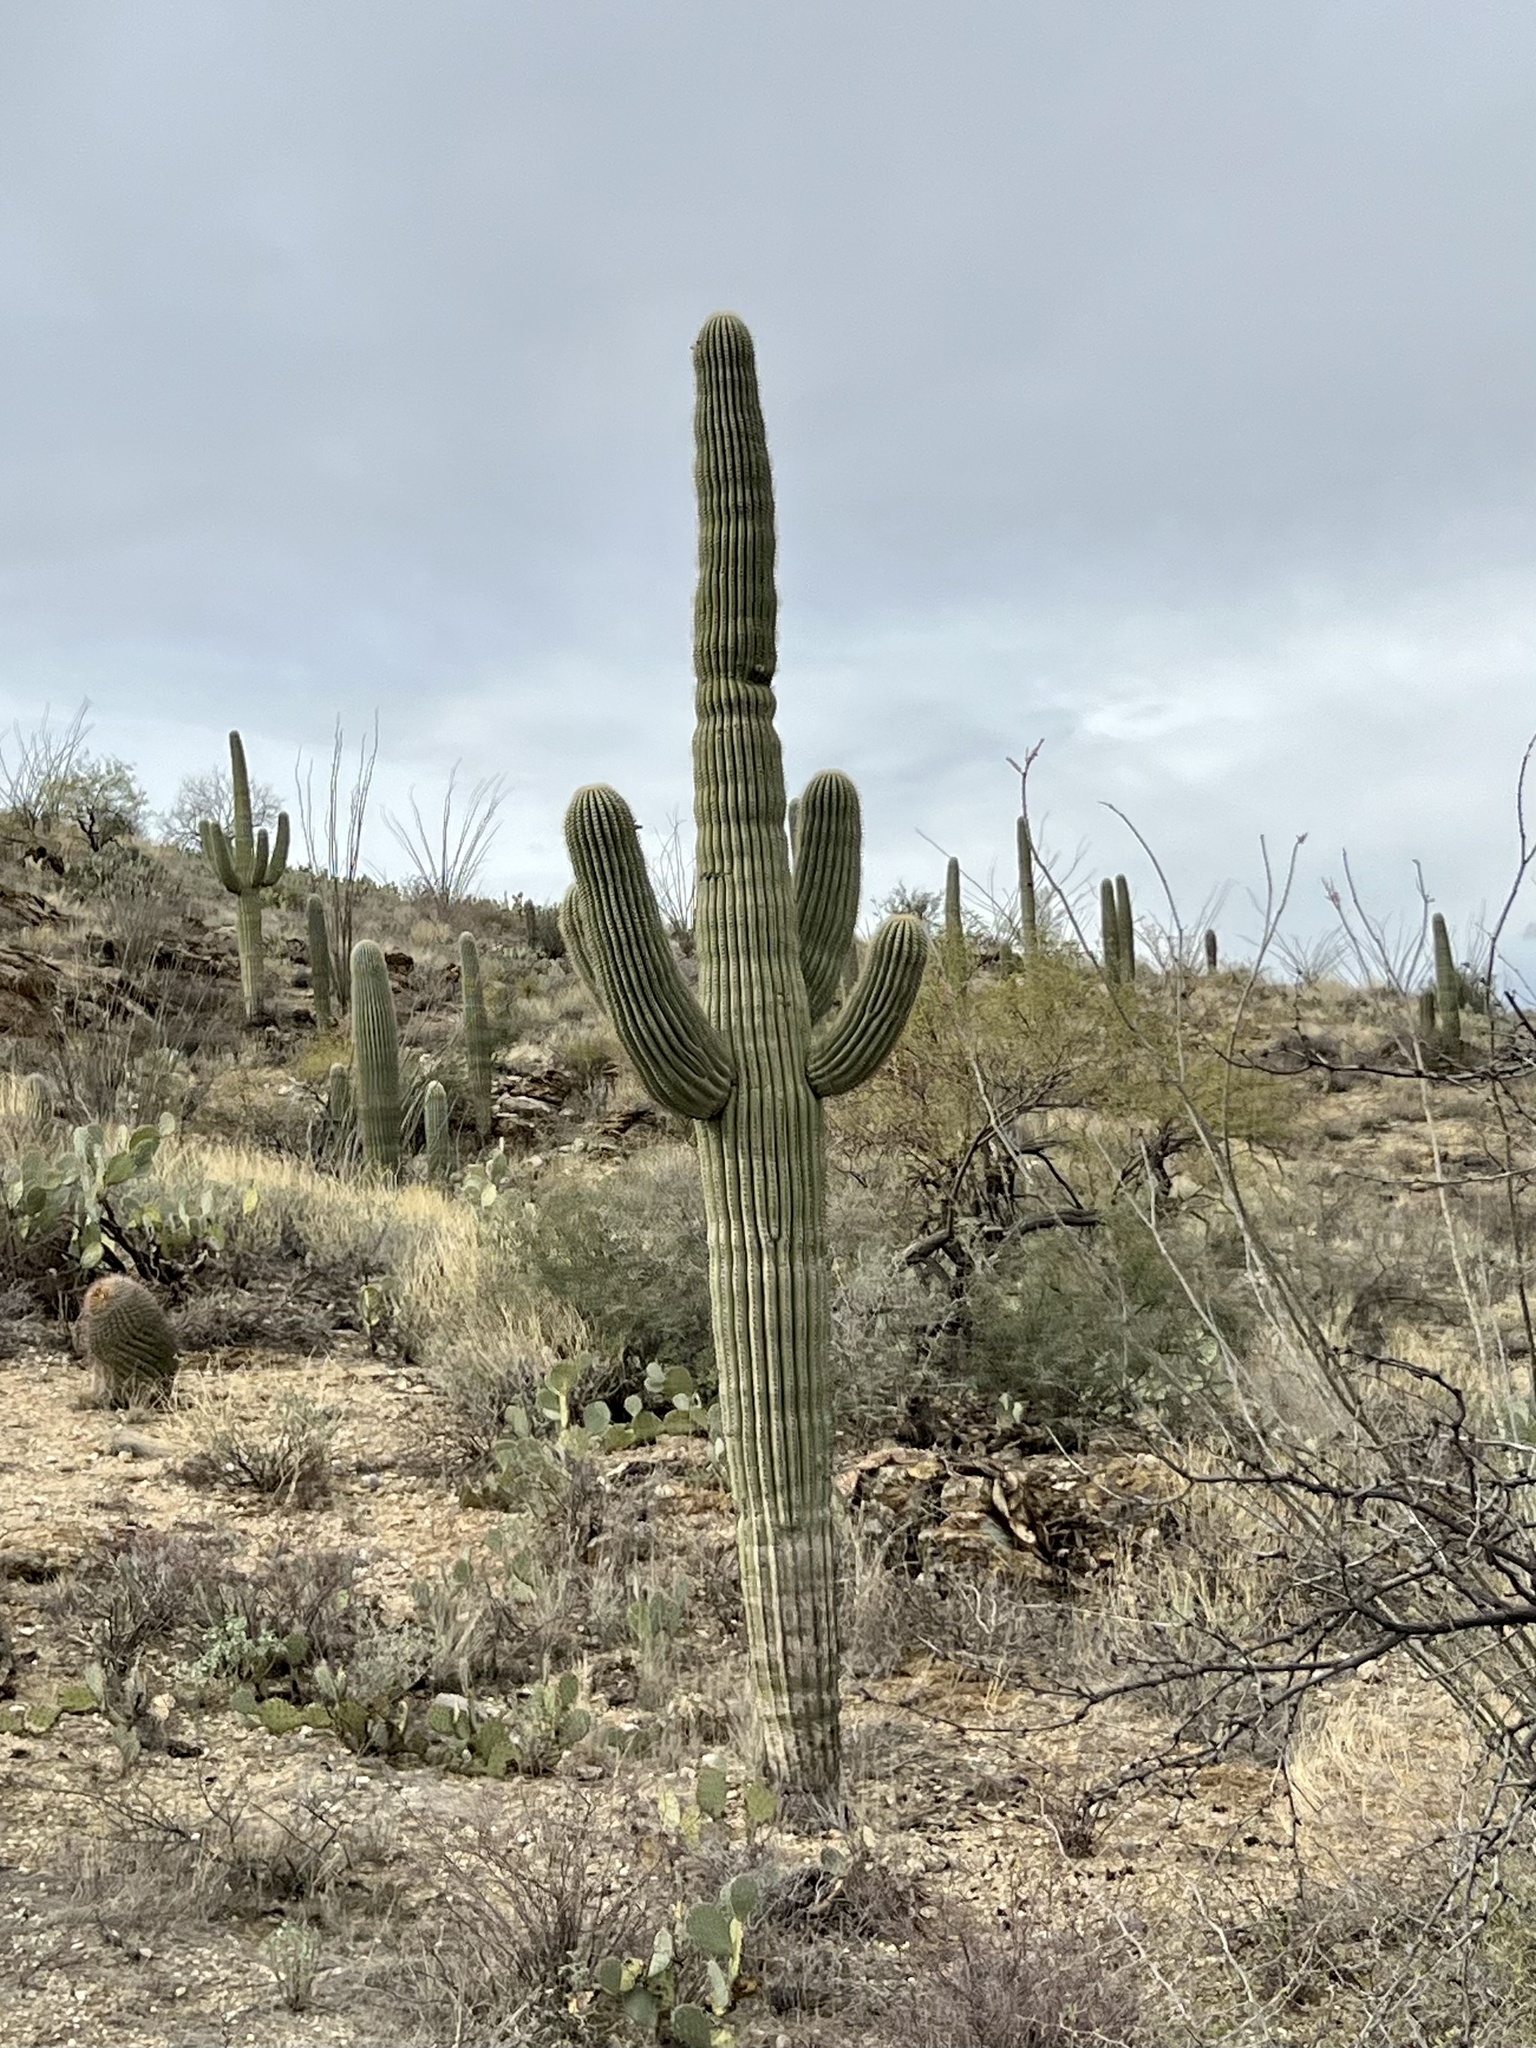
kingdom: Plantae
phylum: Tracheophyta
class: Magnoliopsida
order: Caryophyllales
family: Cactaceae
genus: Carnegiea
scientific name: Carnegiea gigantea
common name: Saguaro
